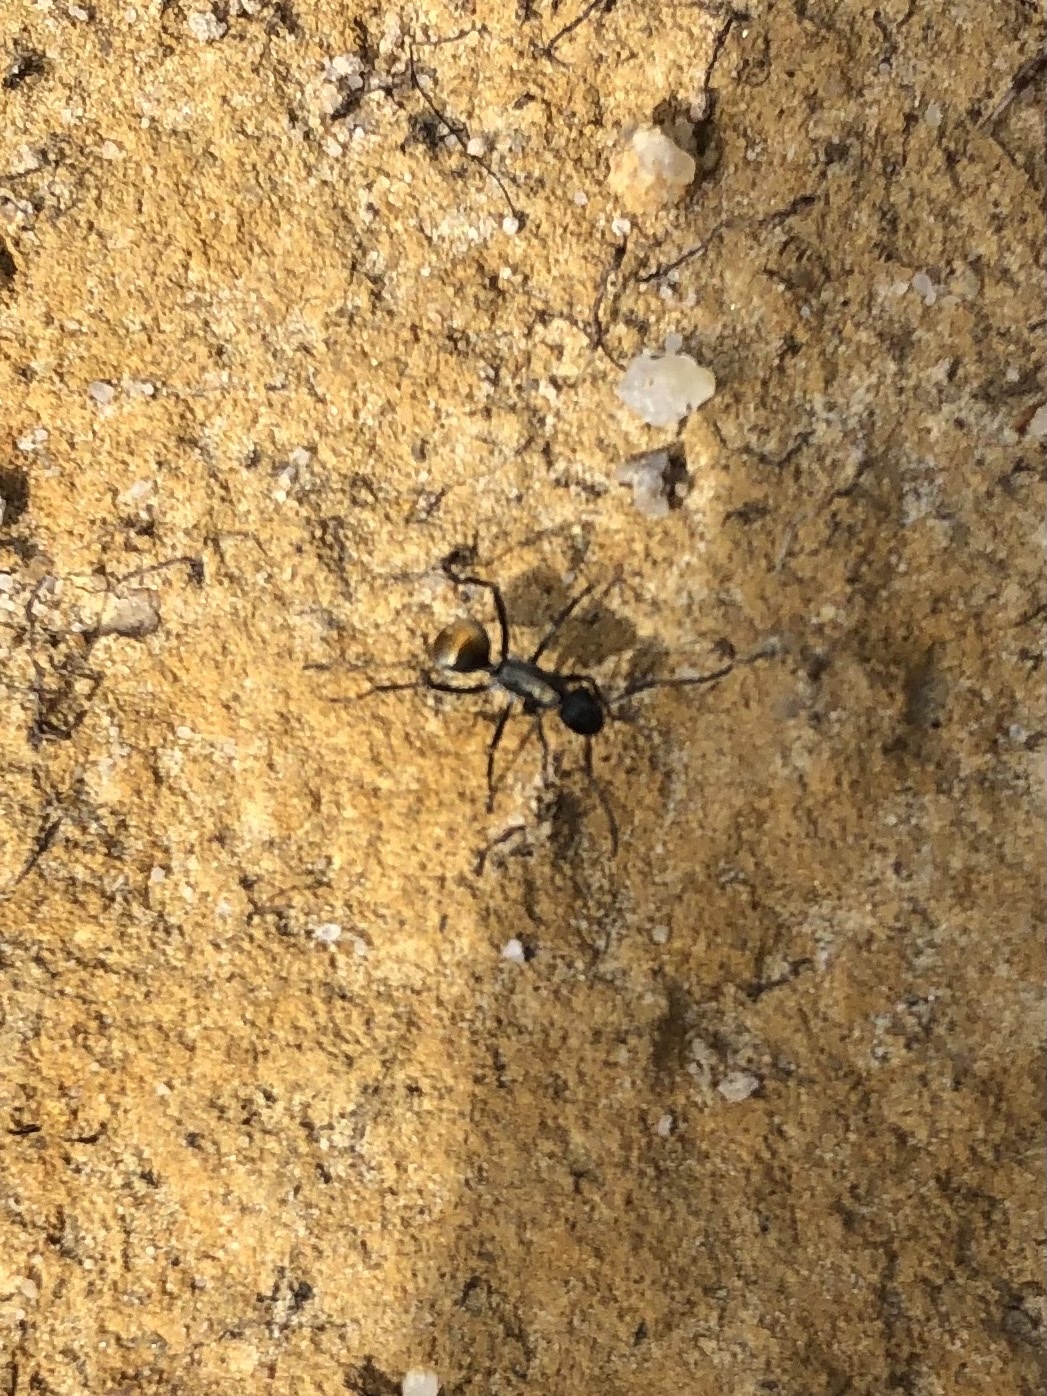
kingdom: Animalia
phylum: Arthropoda
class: Insecta
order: Hymenoptera
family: Formicidae
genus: Polyrhachis
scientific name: Polyrhachis ammon
